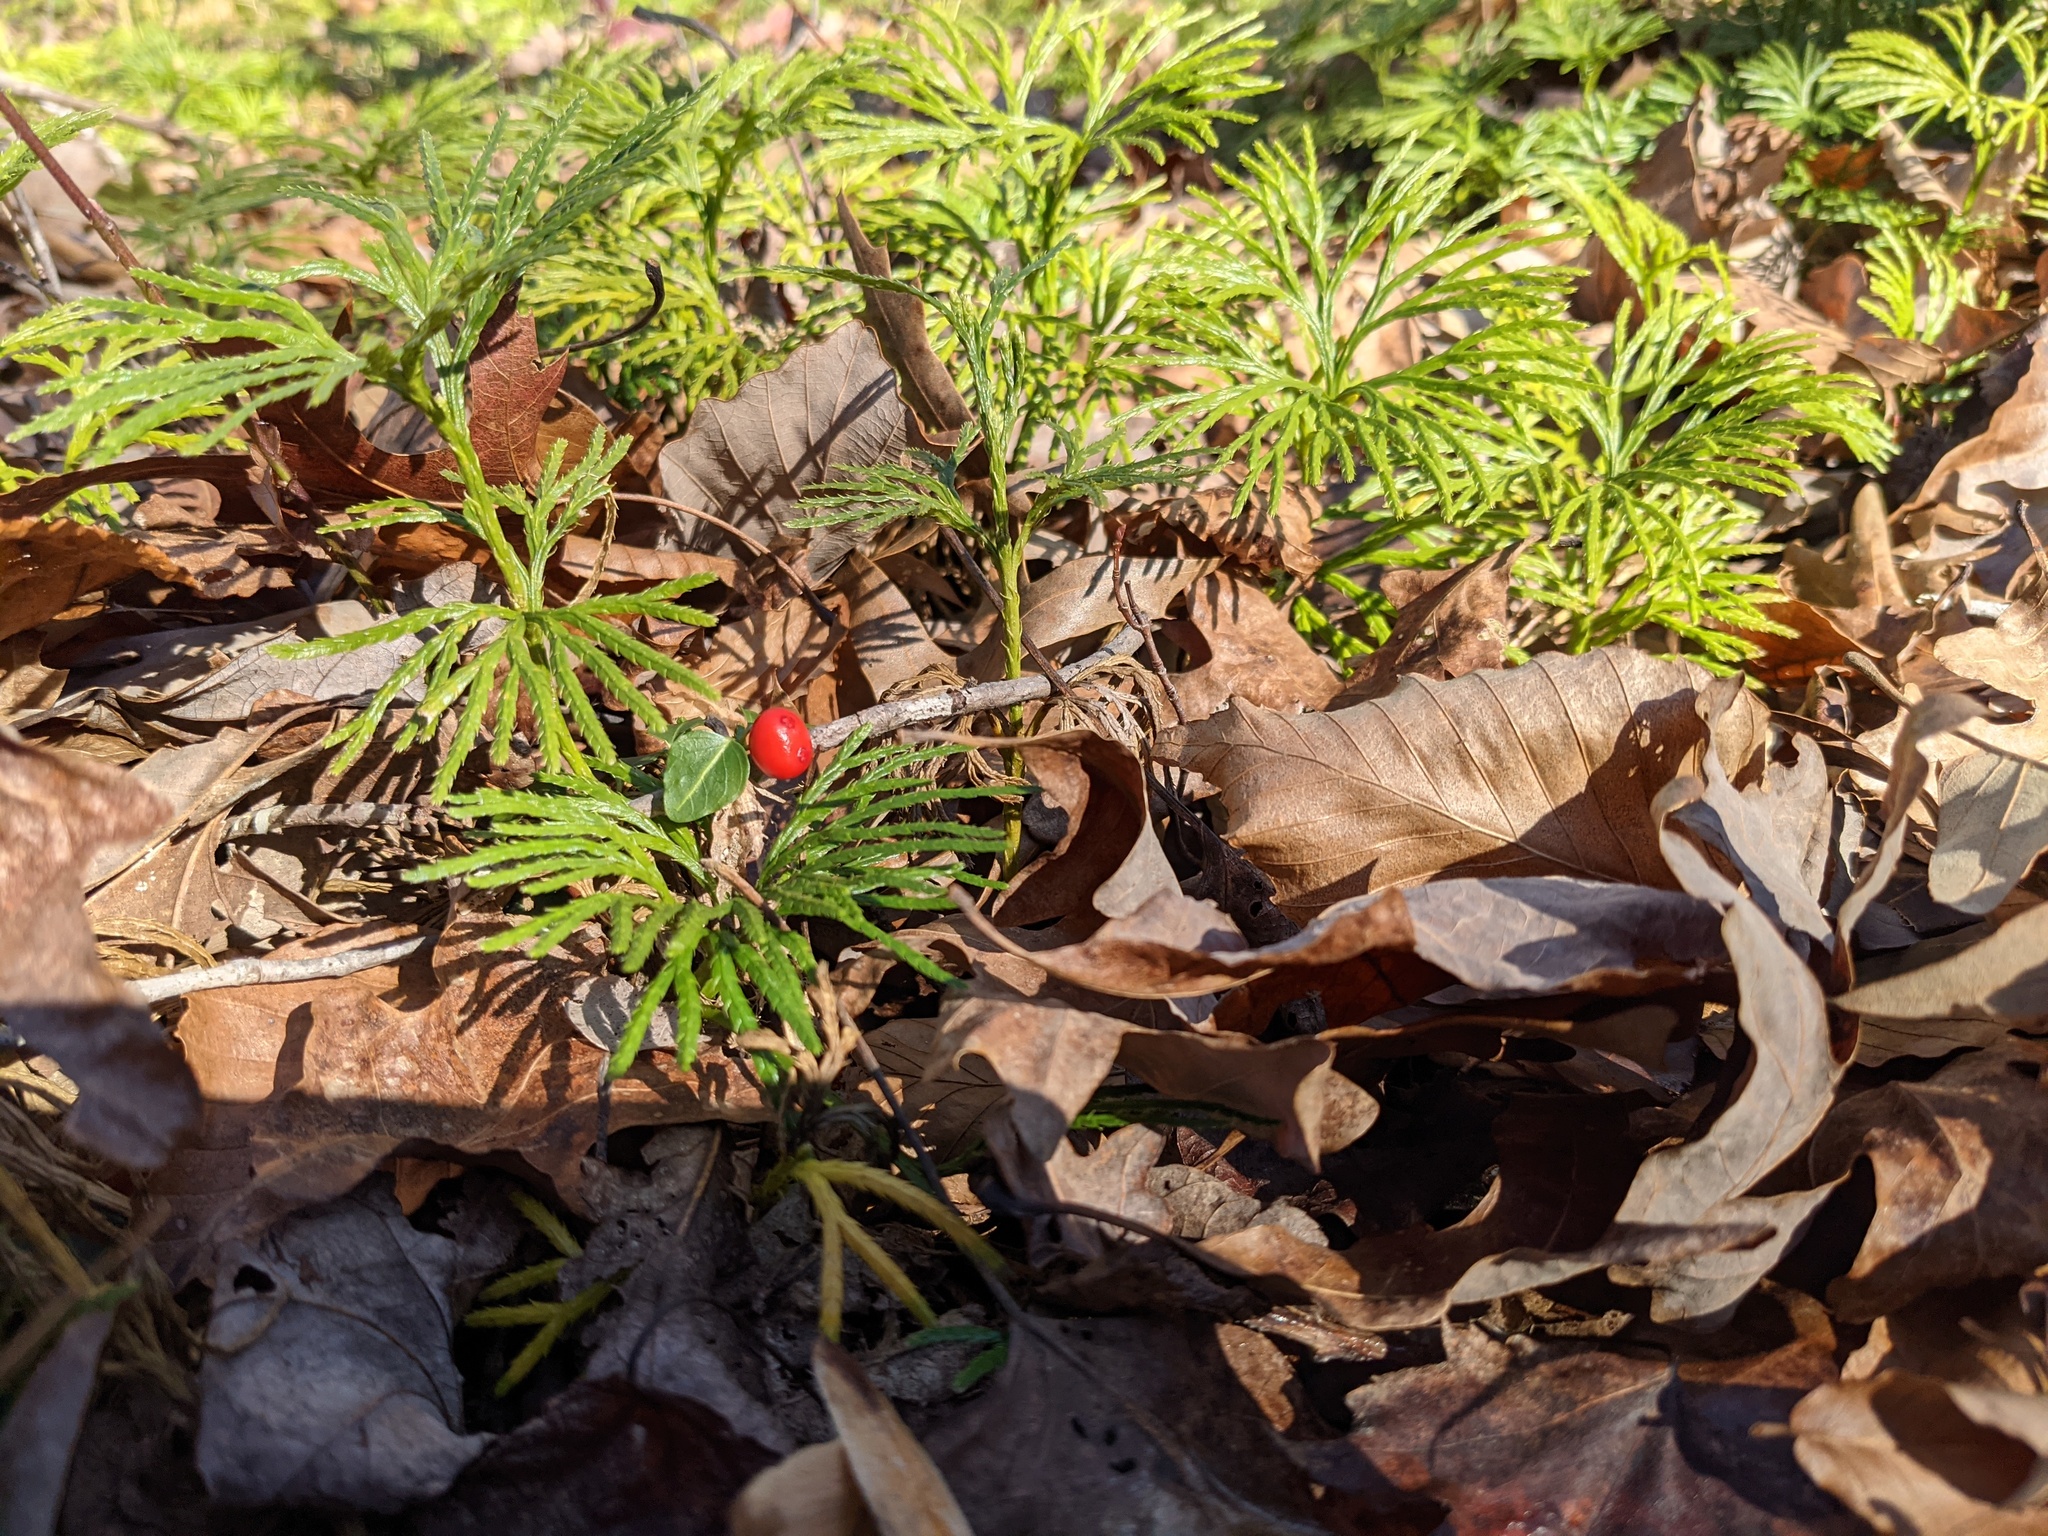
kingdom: Plantae
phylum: Tracheophyta
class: Magnoliopsida
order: Gentianales
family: Rubiaceae
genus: Mitchella
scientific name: Mitchella repens
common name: Partridge-berry
